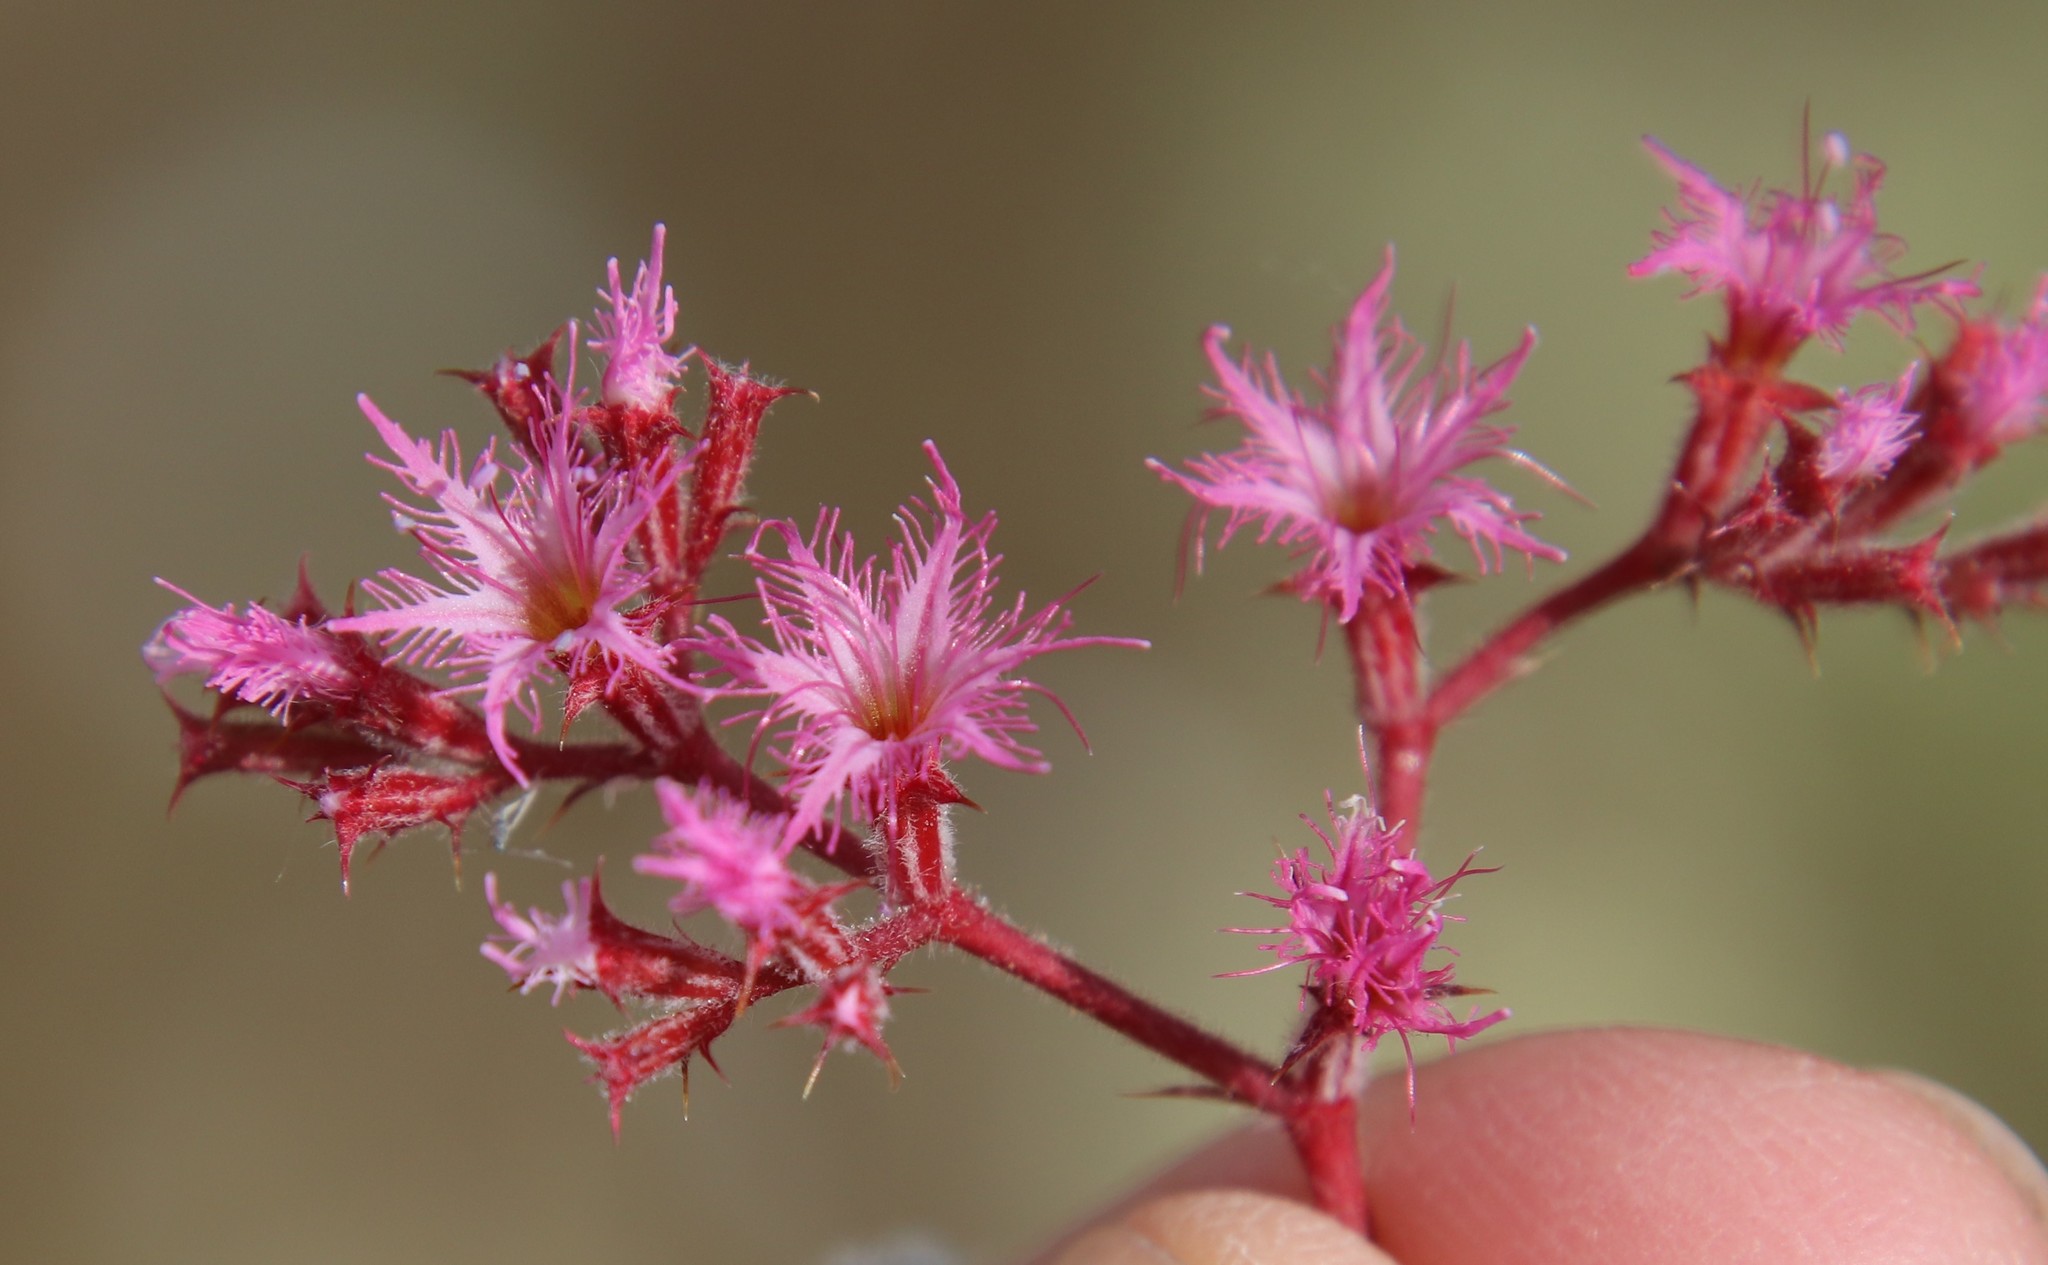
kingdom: Plantae
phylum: Tracheophyta
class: Magnoliopsida
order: Caryophyllales
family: Polygonaceae
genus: Chorizanthe
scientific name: Chorizanthe fimbriata
